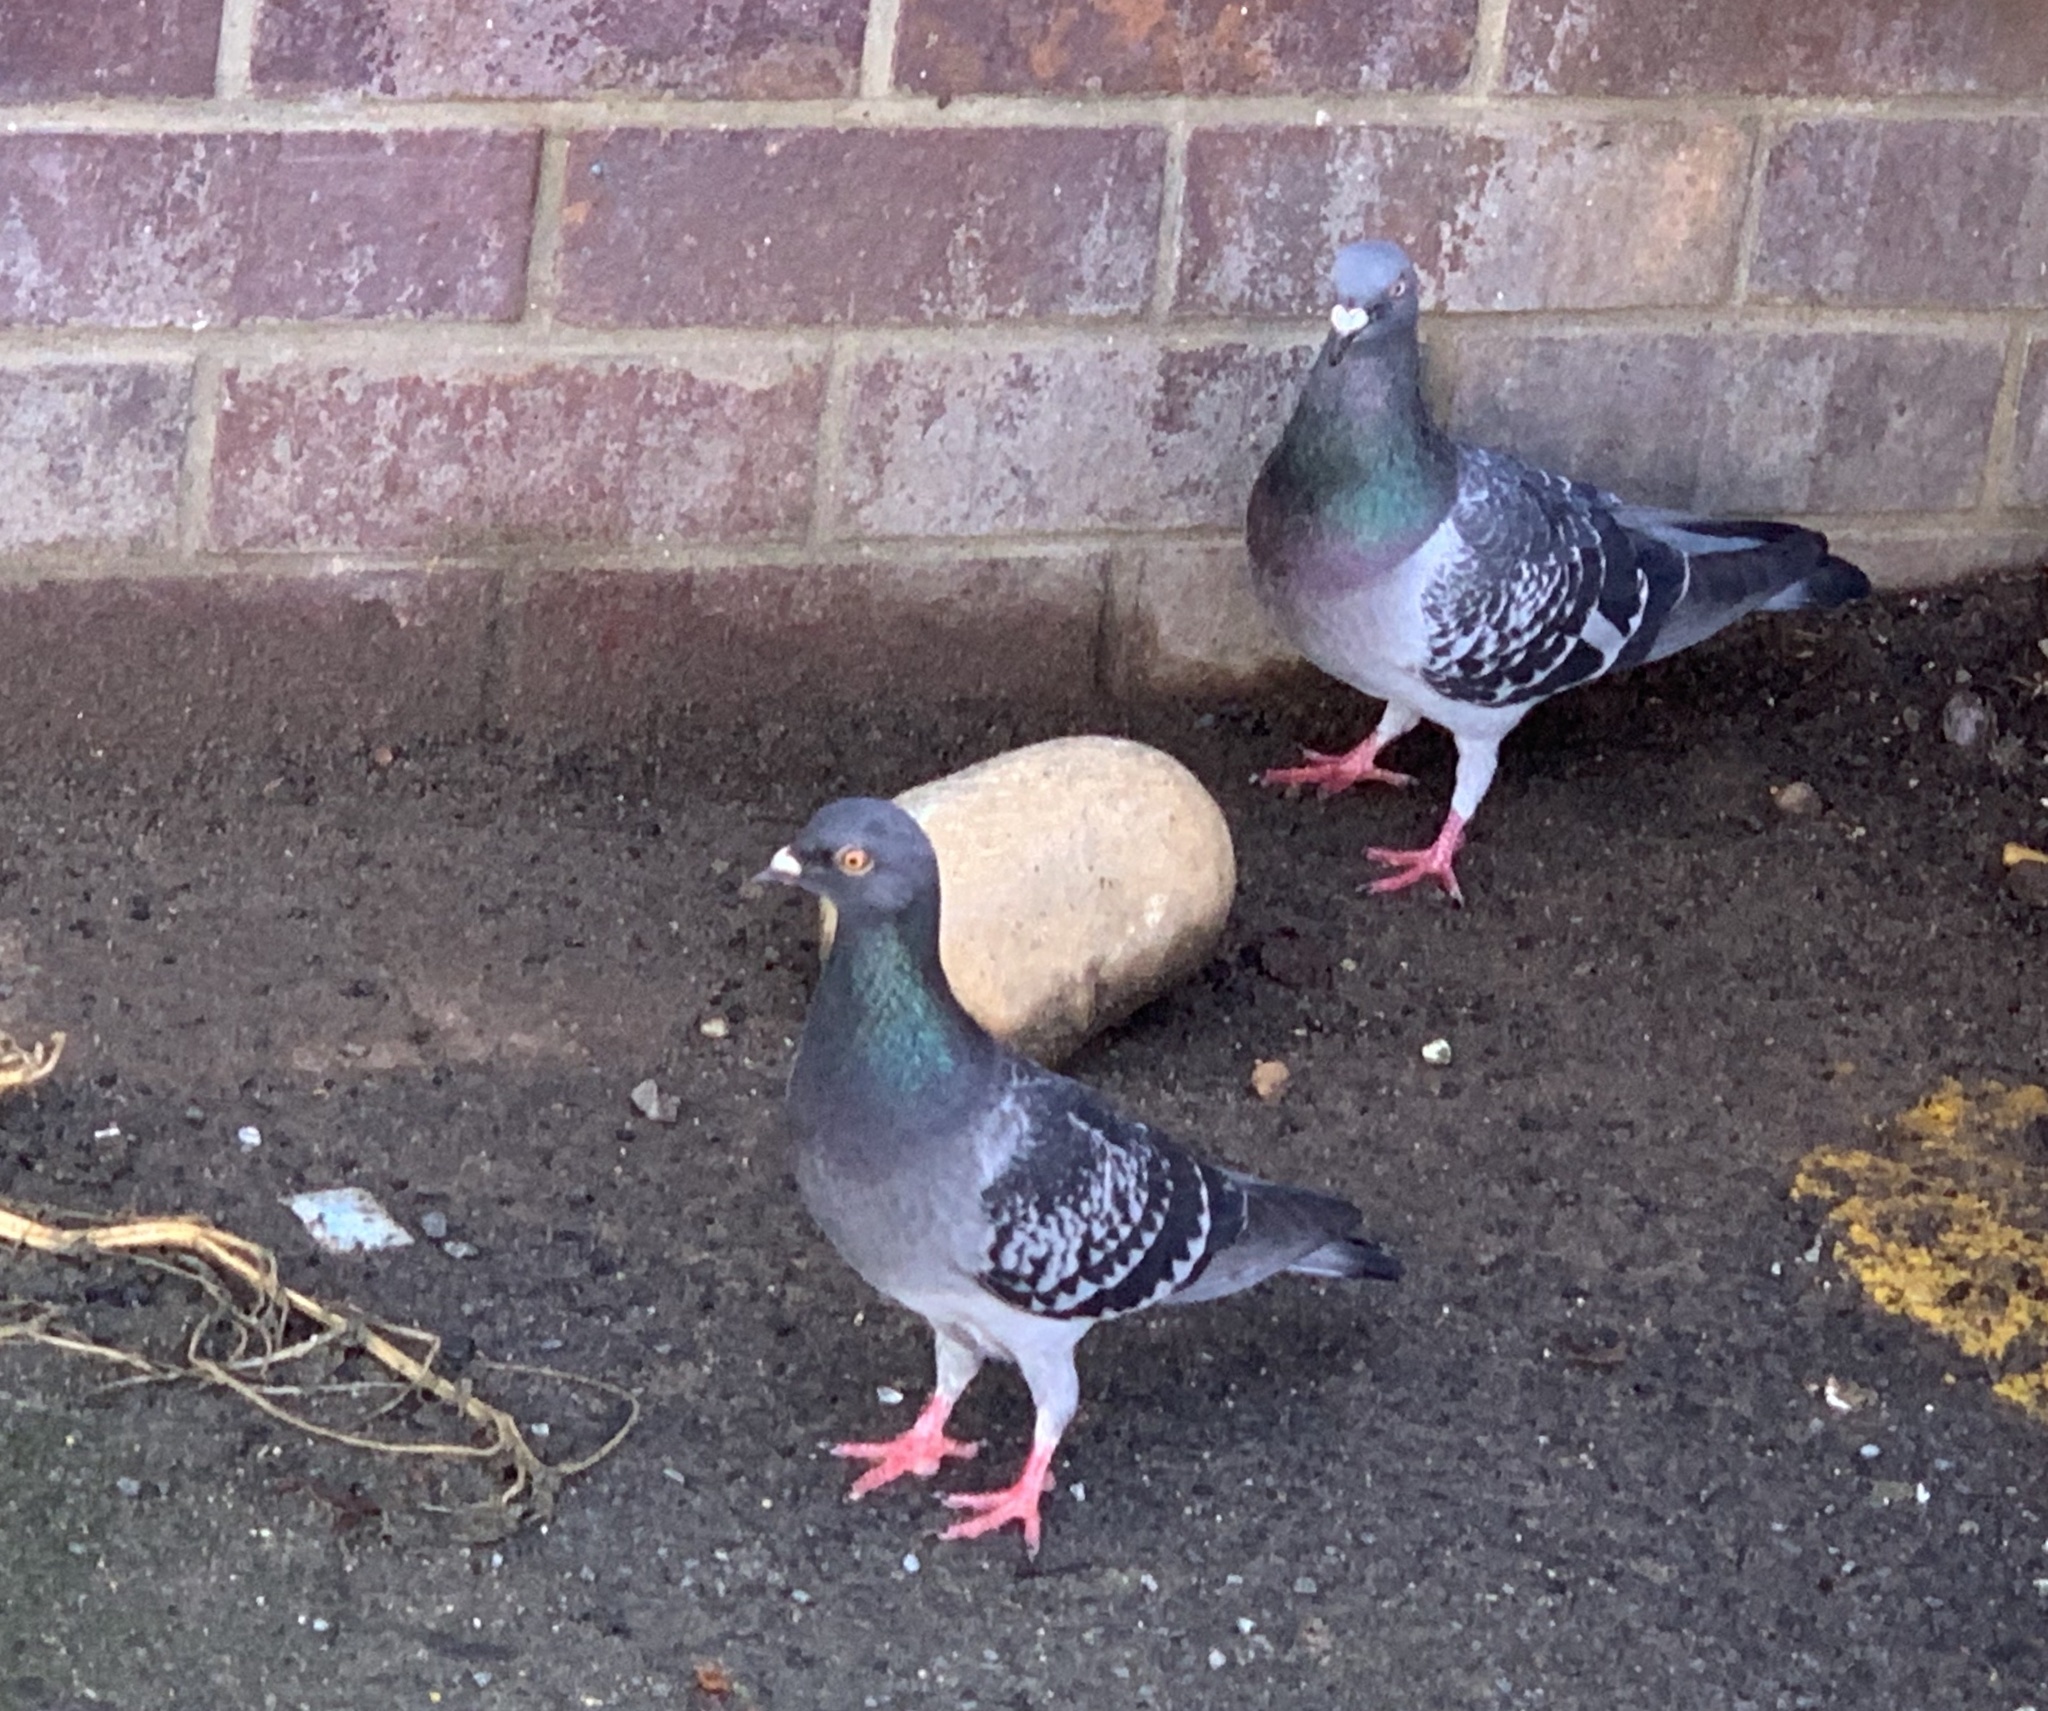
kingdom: Animalia
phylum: Chordata
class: Aves
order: Columbiformes
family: Columbidae
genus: Columba
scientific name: Columba livia
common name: Rock pigeon
